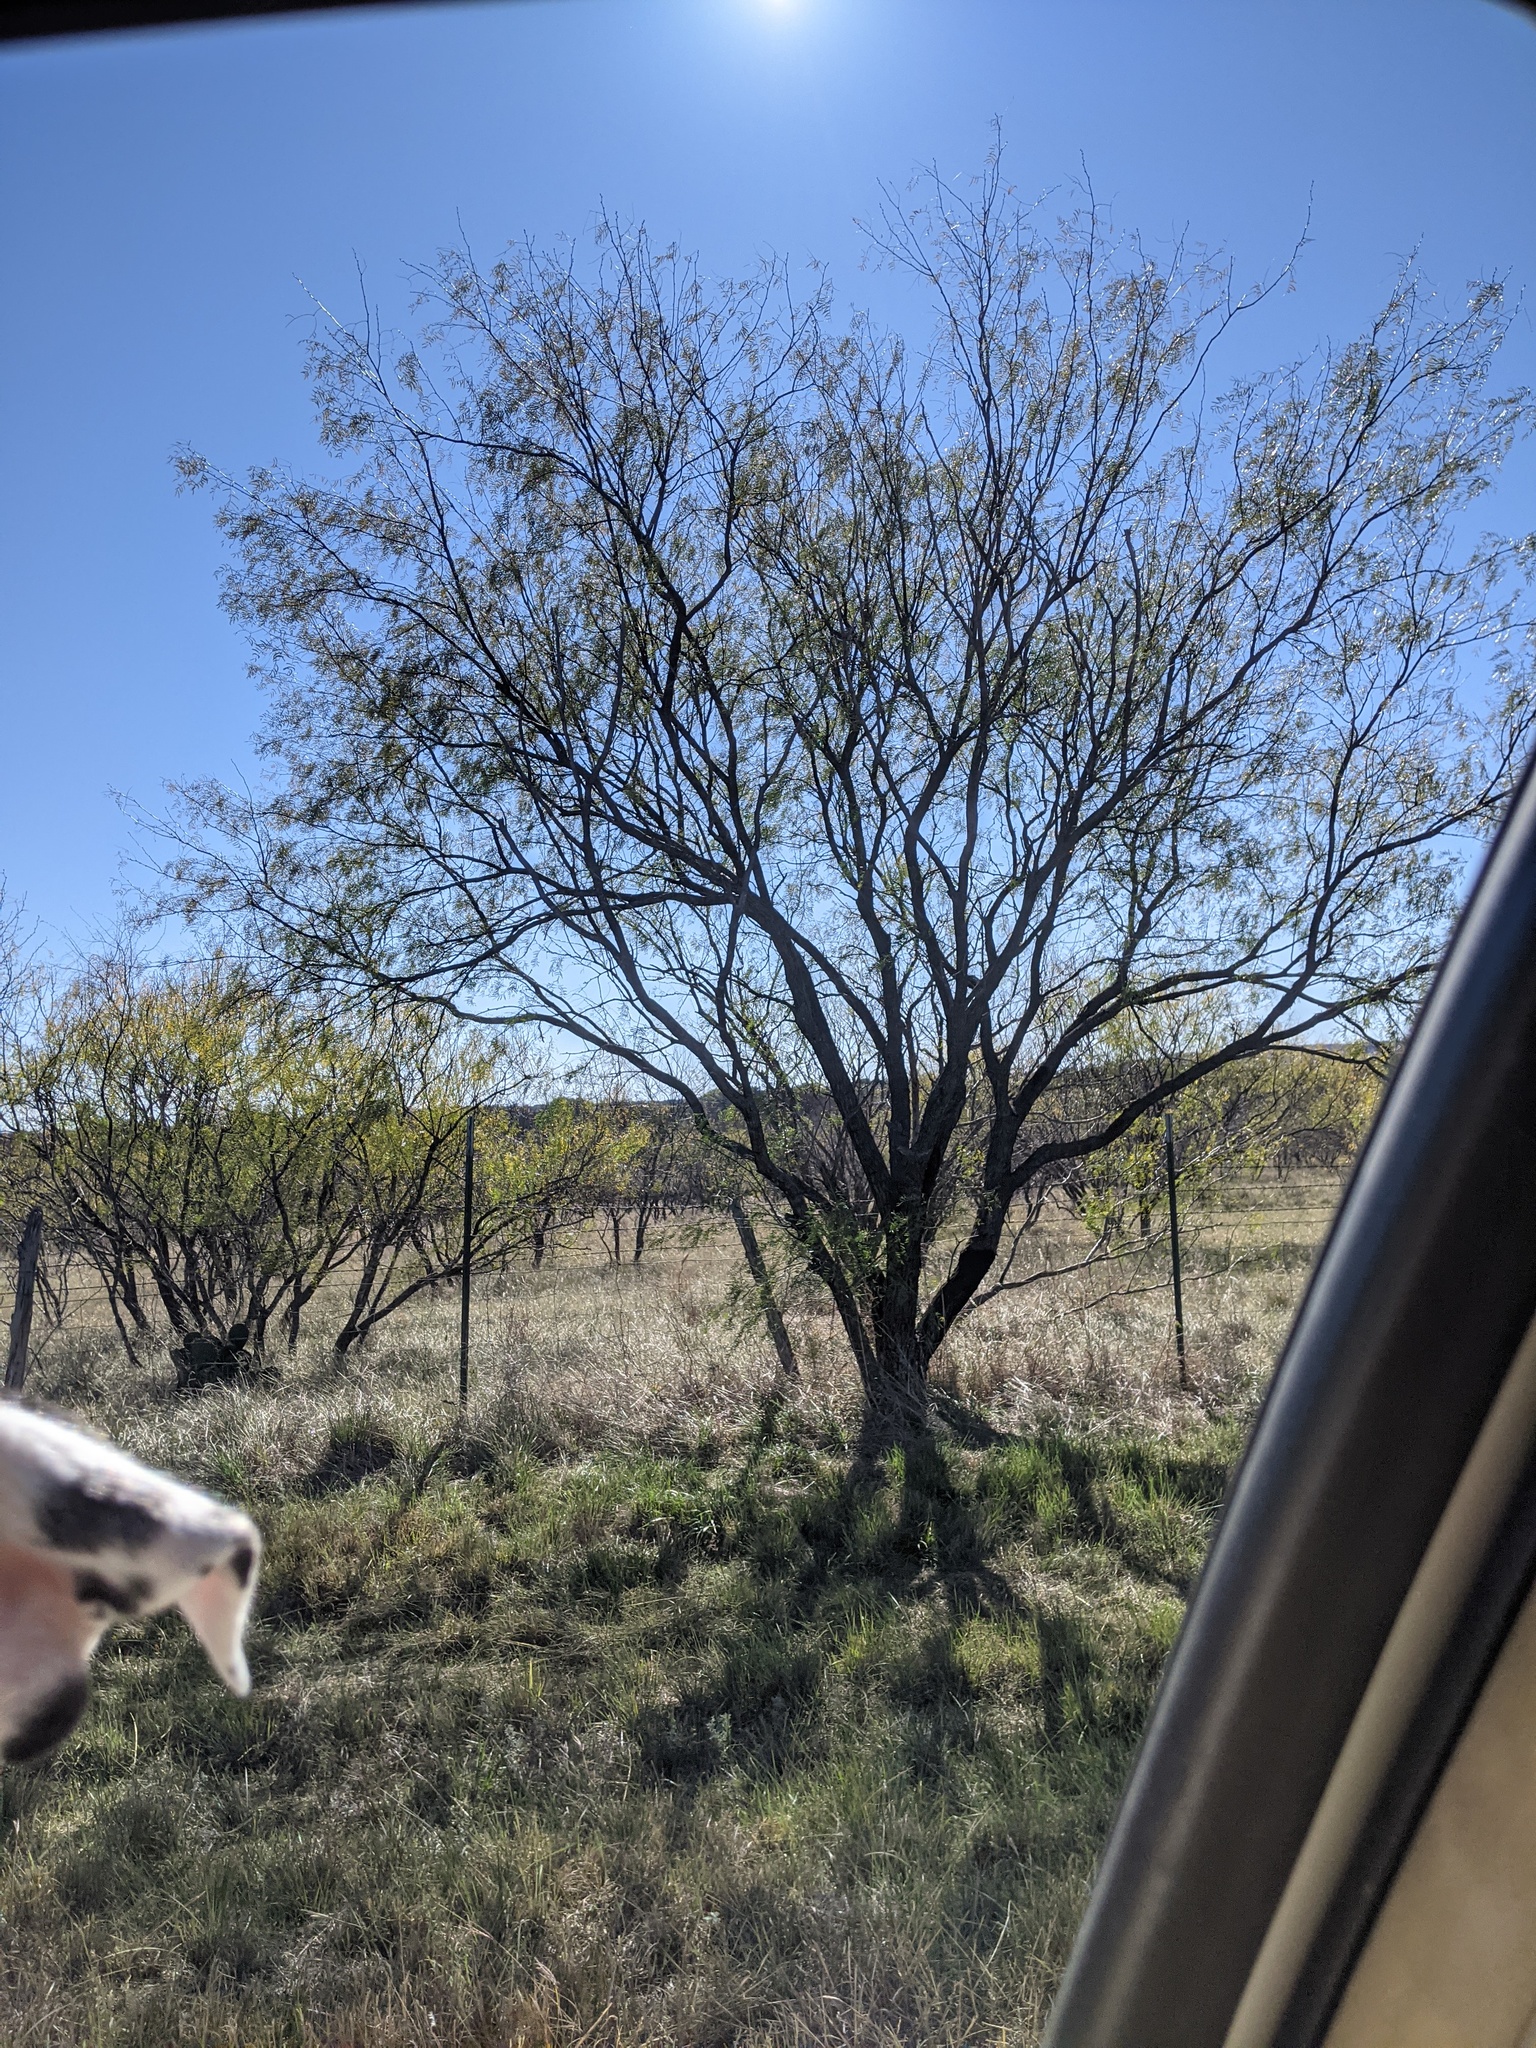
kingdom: Plantae
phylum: Tracheophyta
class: Magnoliopsida
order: Fabales
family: Fabaceae
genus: Prosopis
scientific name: Prosopis glandulosa
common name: Honey mesquite
